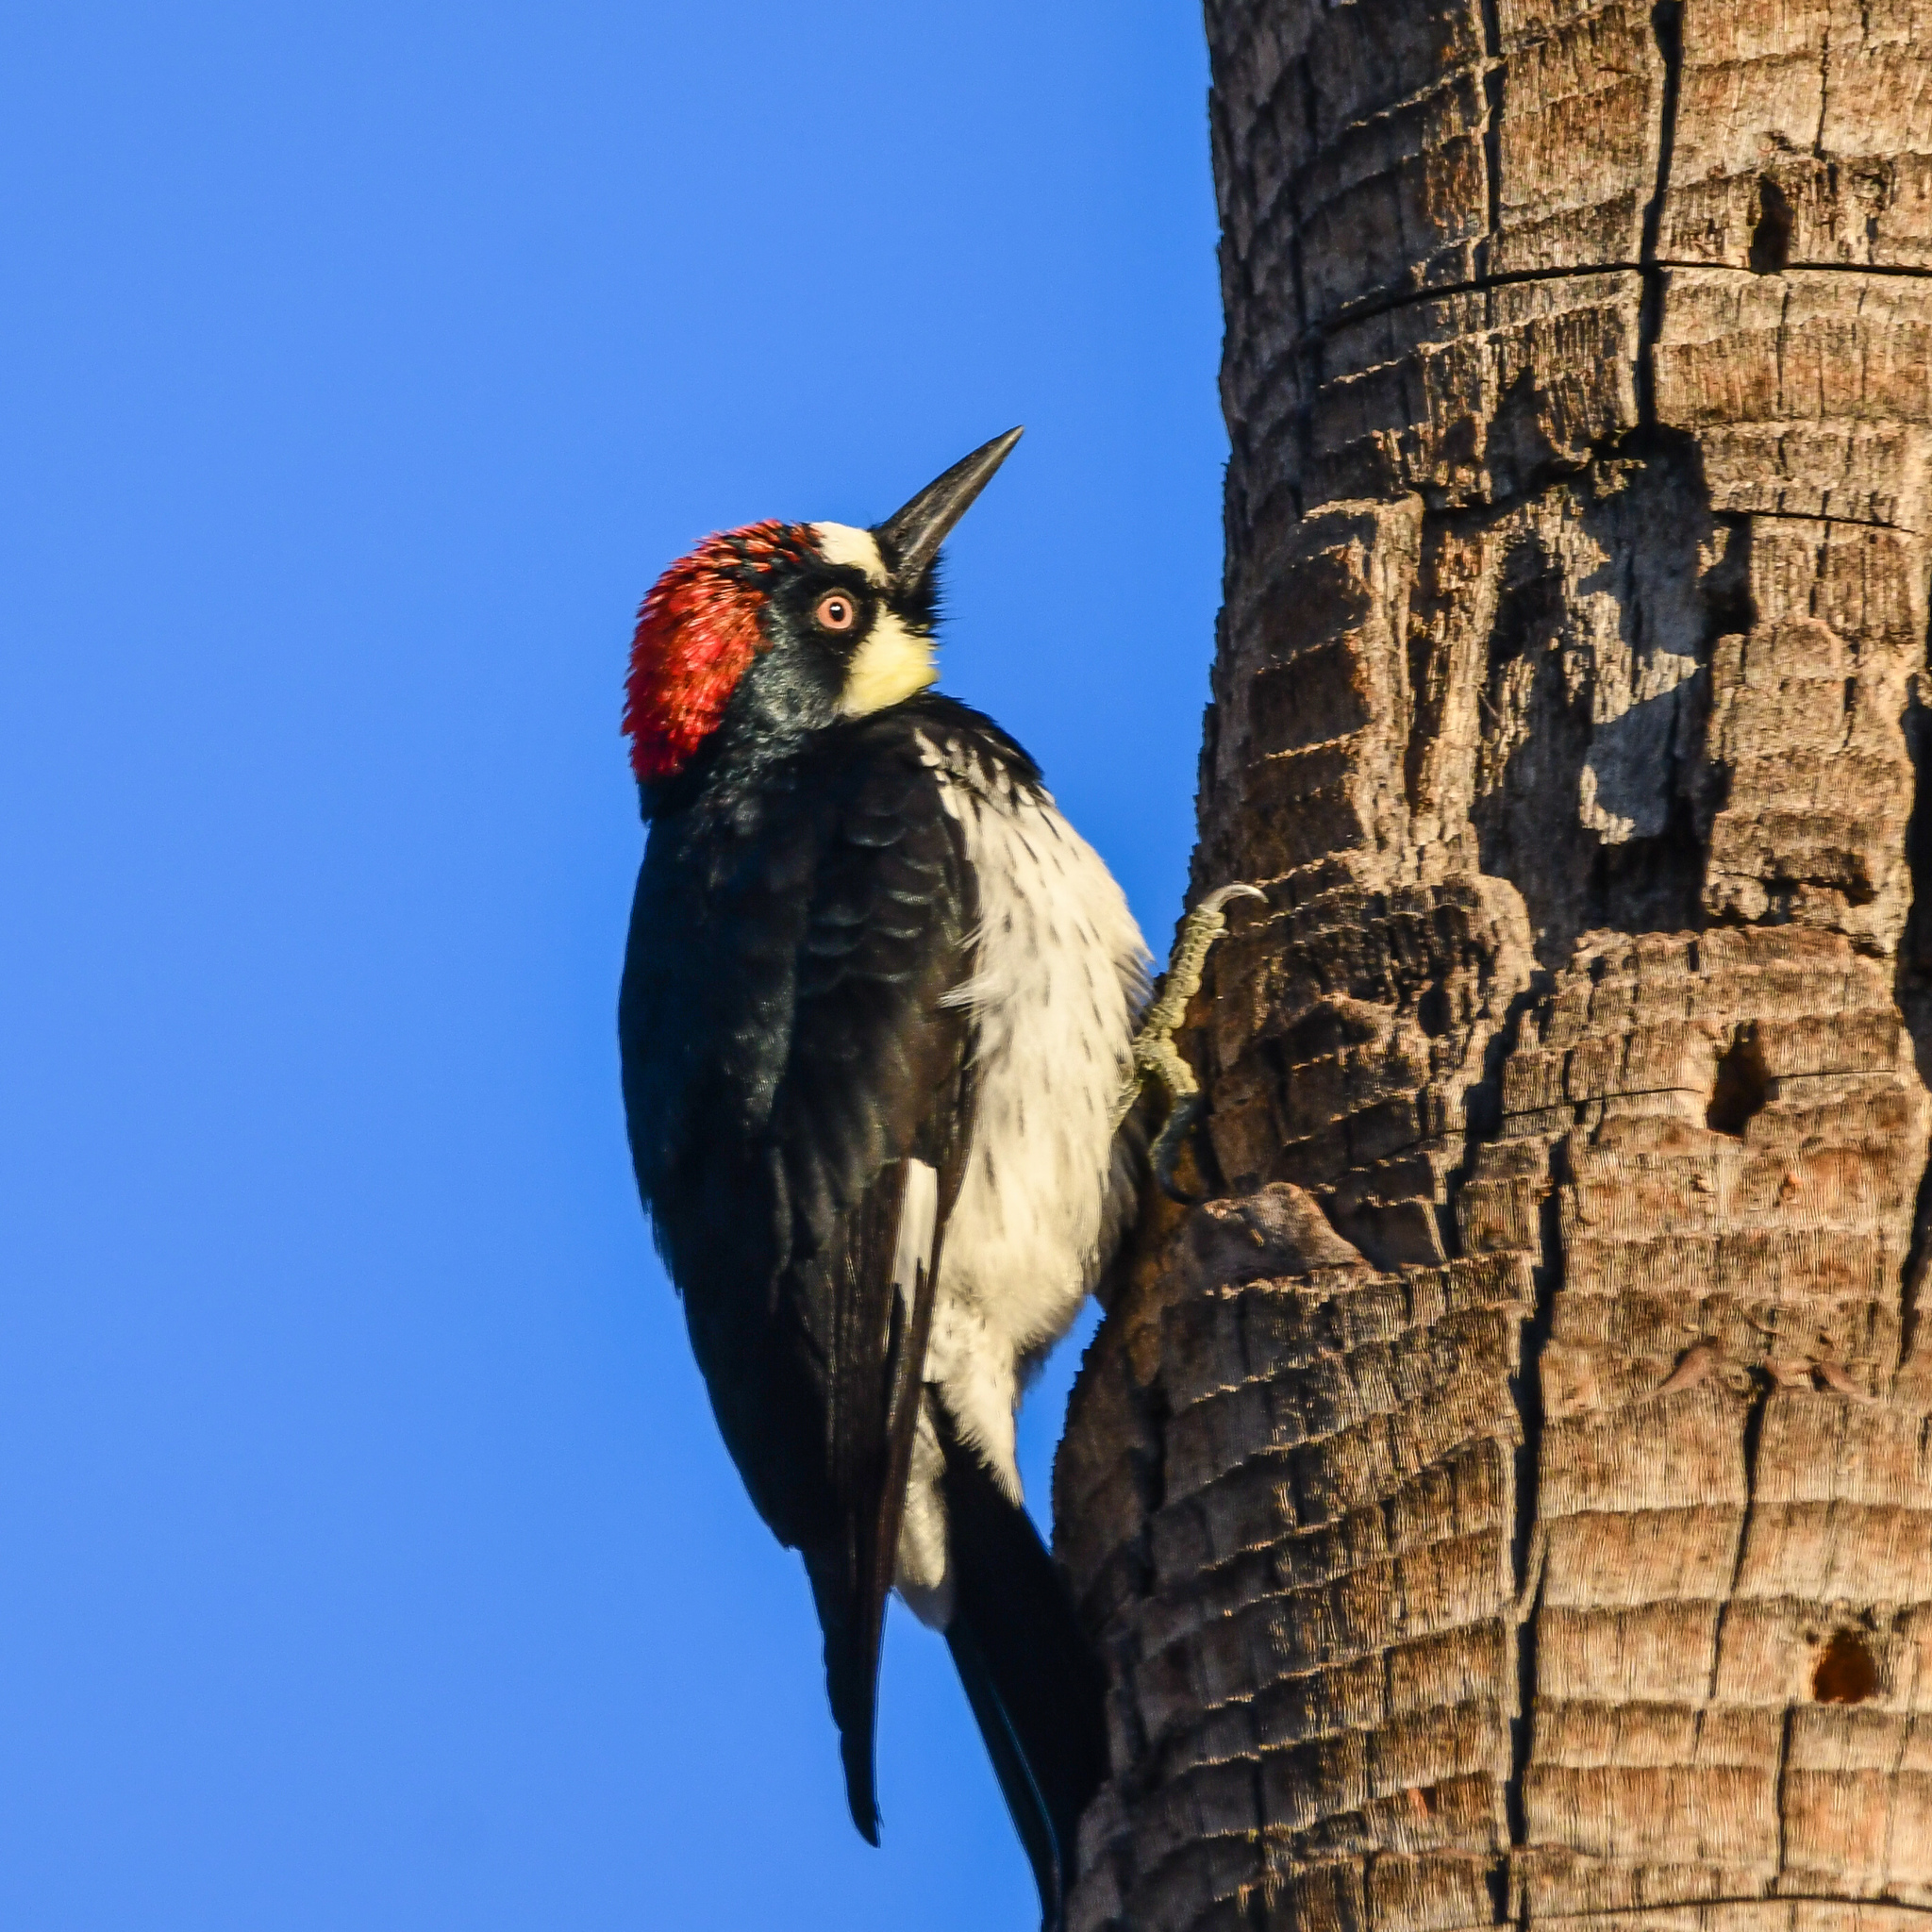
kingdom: Animalia
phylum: Chordata
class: Aves
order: Piciformes
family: Picidae
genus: Melanerpes
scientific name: Melanerpes formicivorus
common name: Acorn woodpecker
